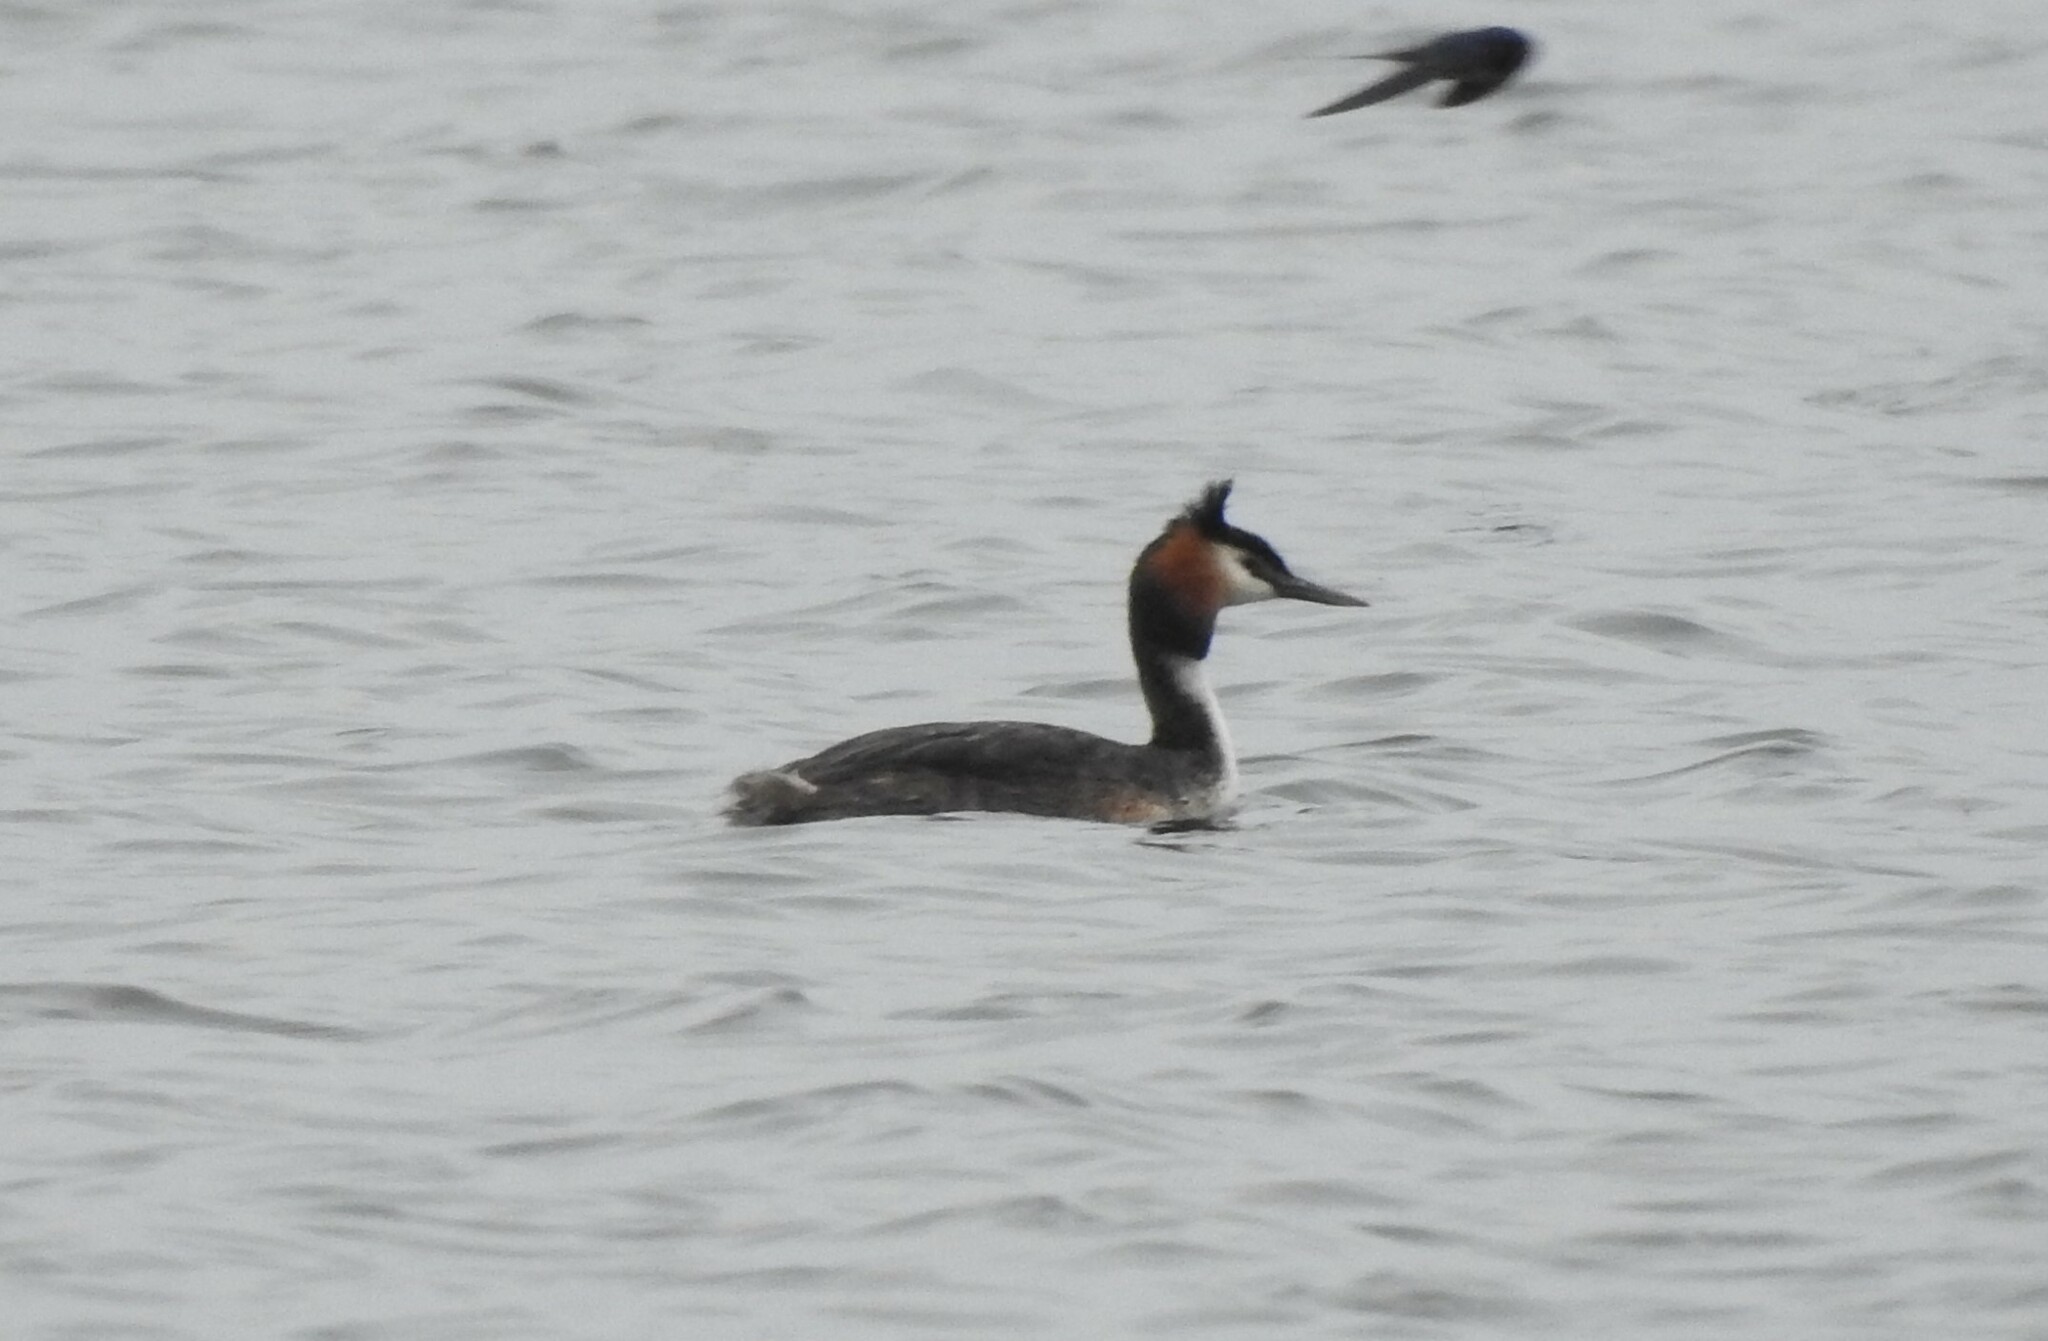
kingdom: Animalia
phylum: Chordata
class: Aves
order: Podicipediformes
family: Podicipedidae
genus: Podiceps
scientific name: Podiceps cristatus
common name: Great crested grebe
